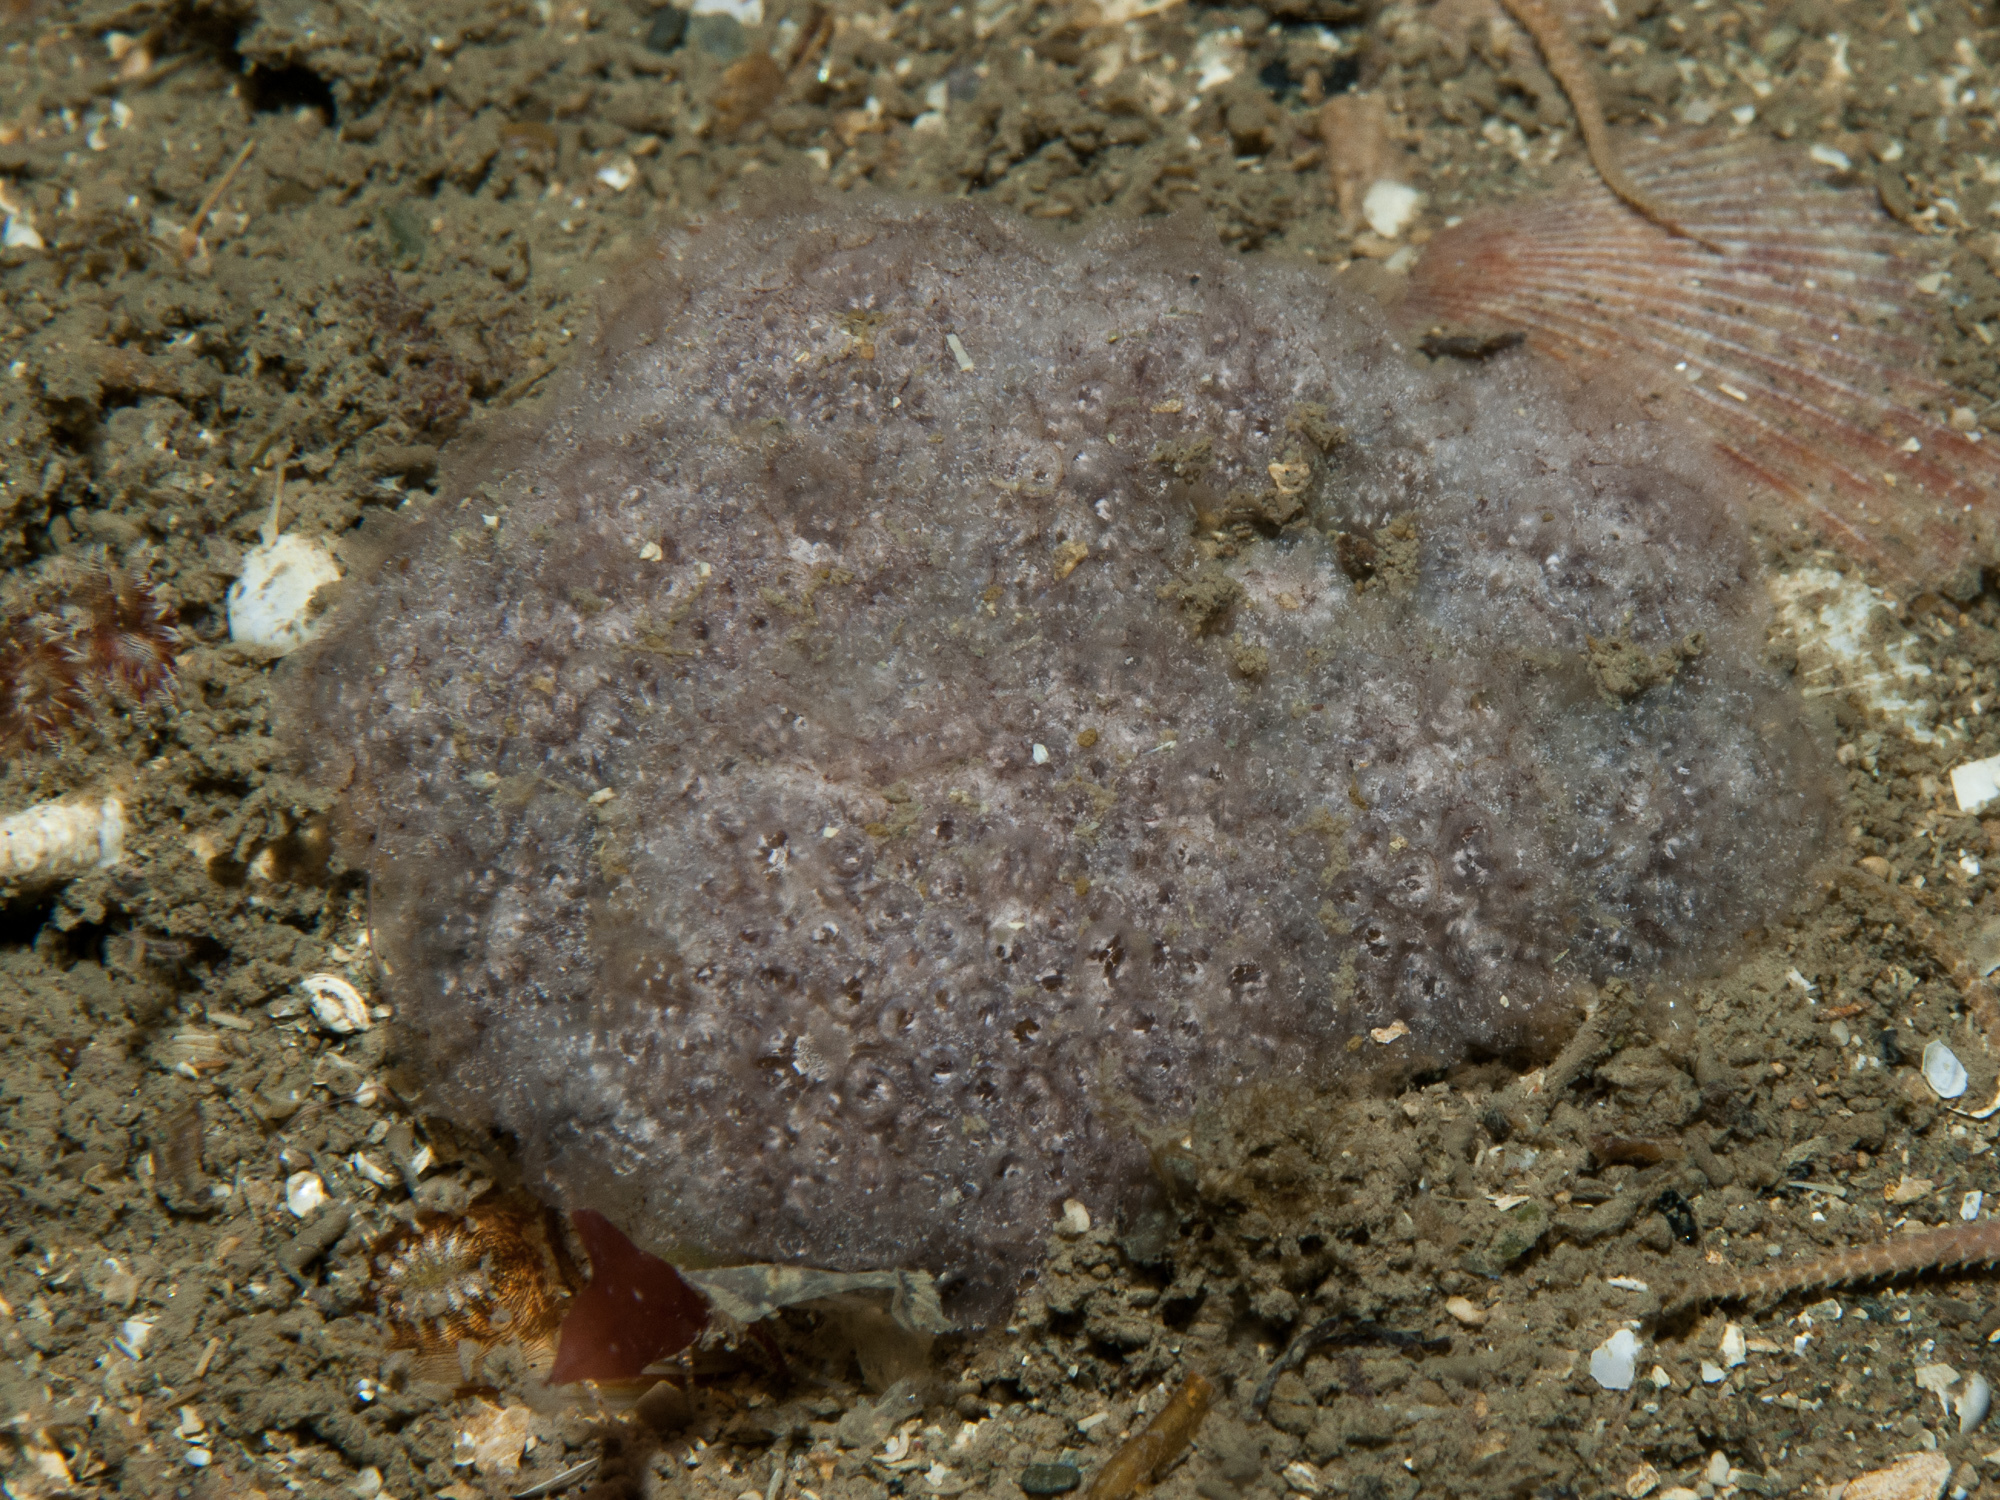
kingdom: Animalia
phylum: Chordata
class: Ascidiacea
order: Aplousobranchia
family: Holozoidae
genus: Distaplia
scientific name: Distaplia rosea
